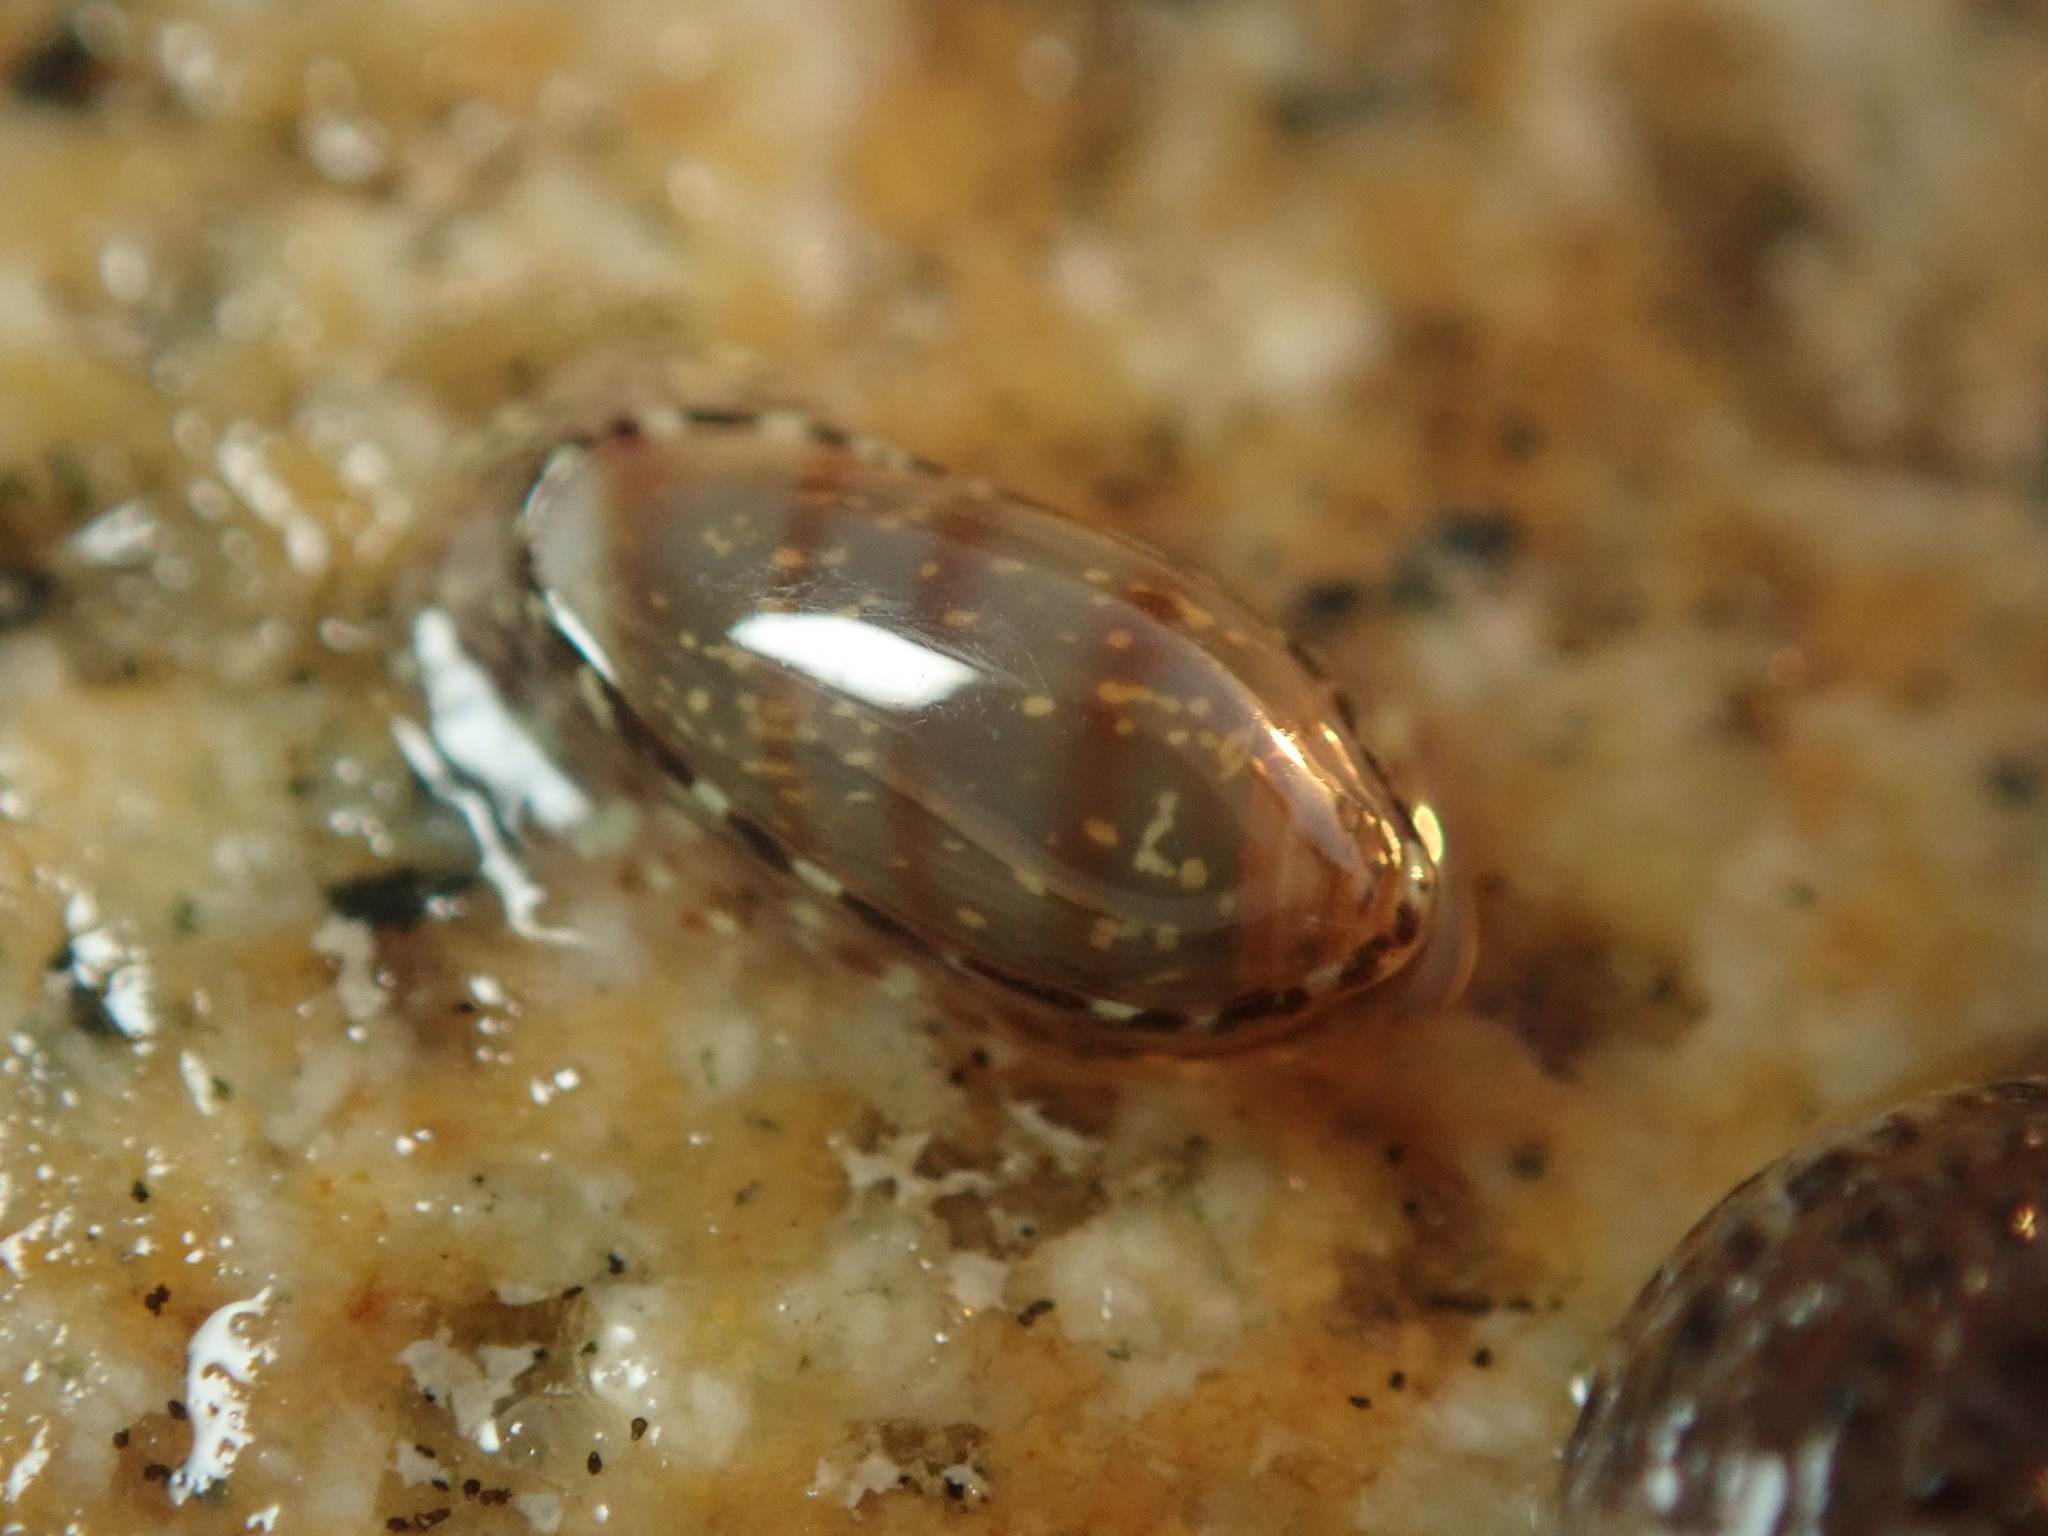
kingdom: Animalia
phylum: Mollusca
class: Gastropoda
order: Neogastropoda
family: Marginellidae
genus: Volvarina
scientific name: Volvarina taeniolata
